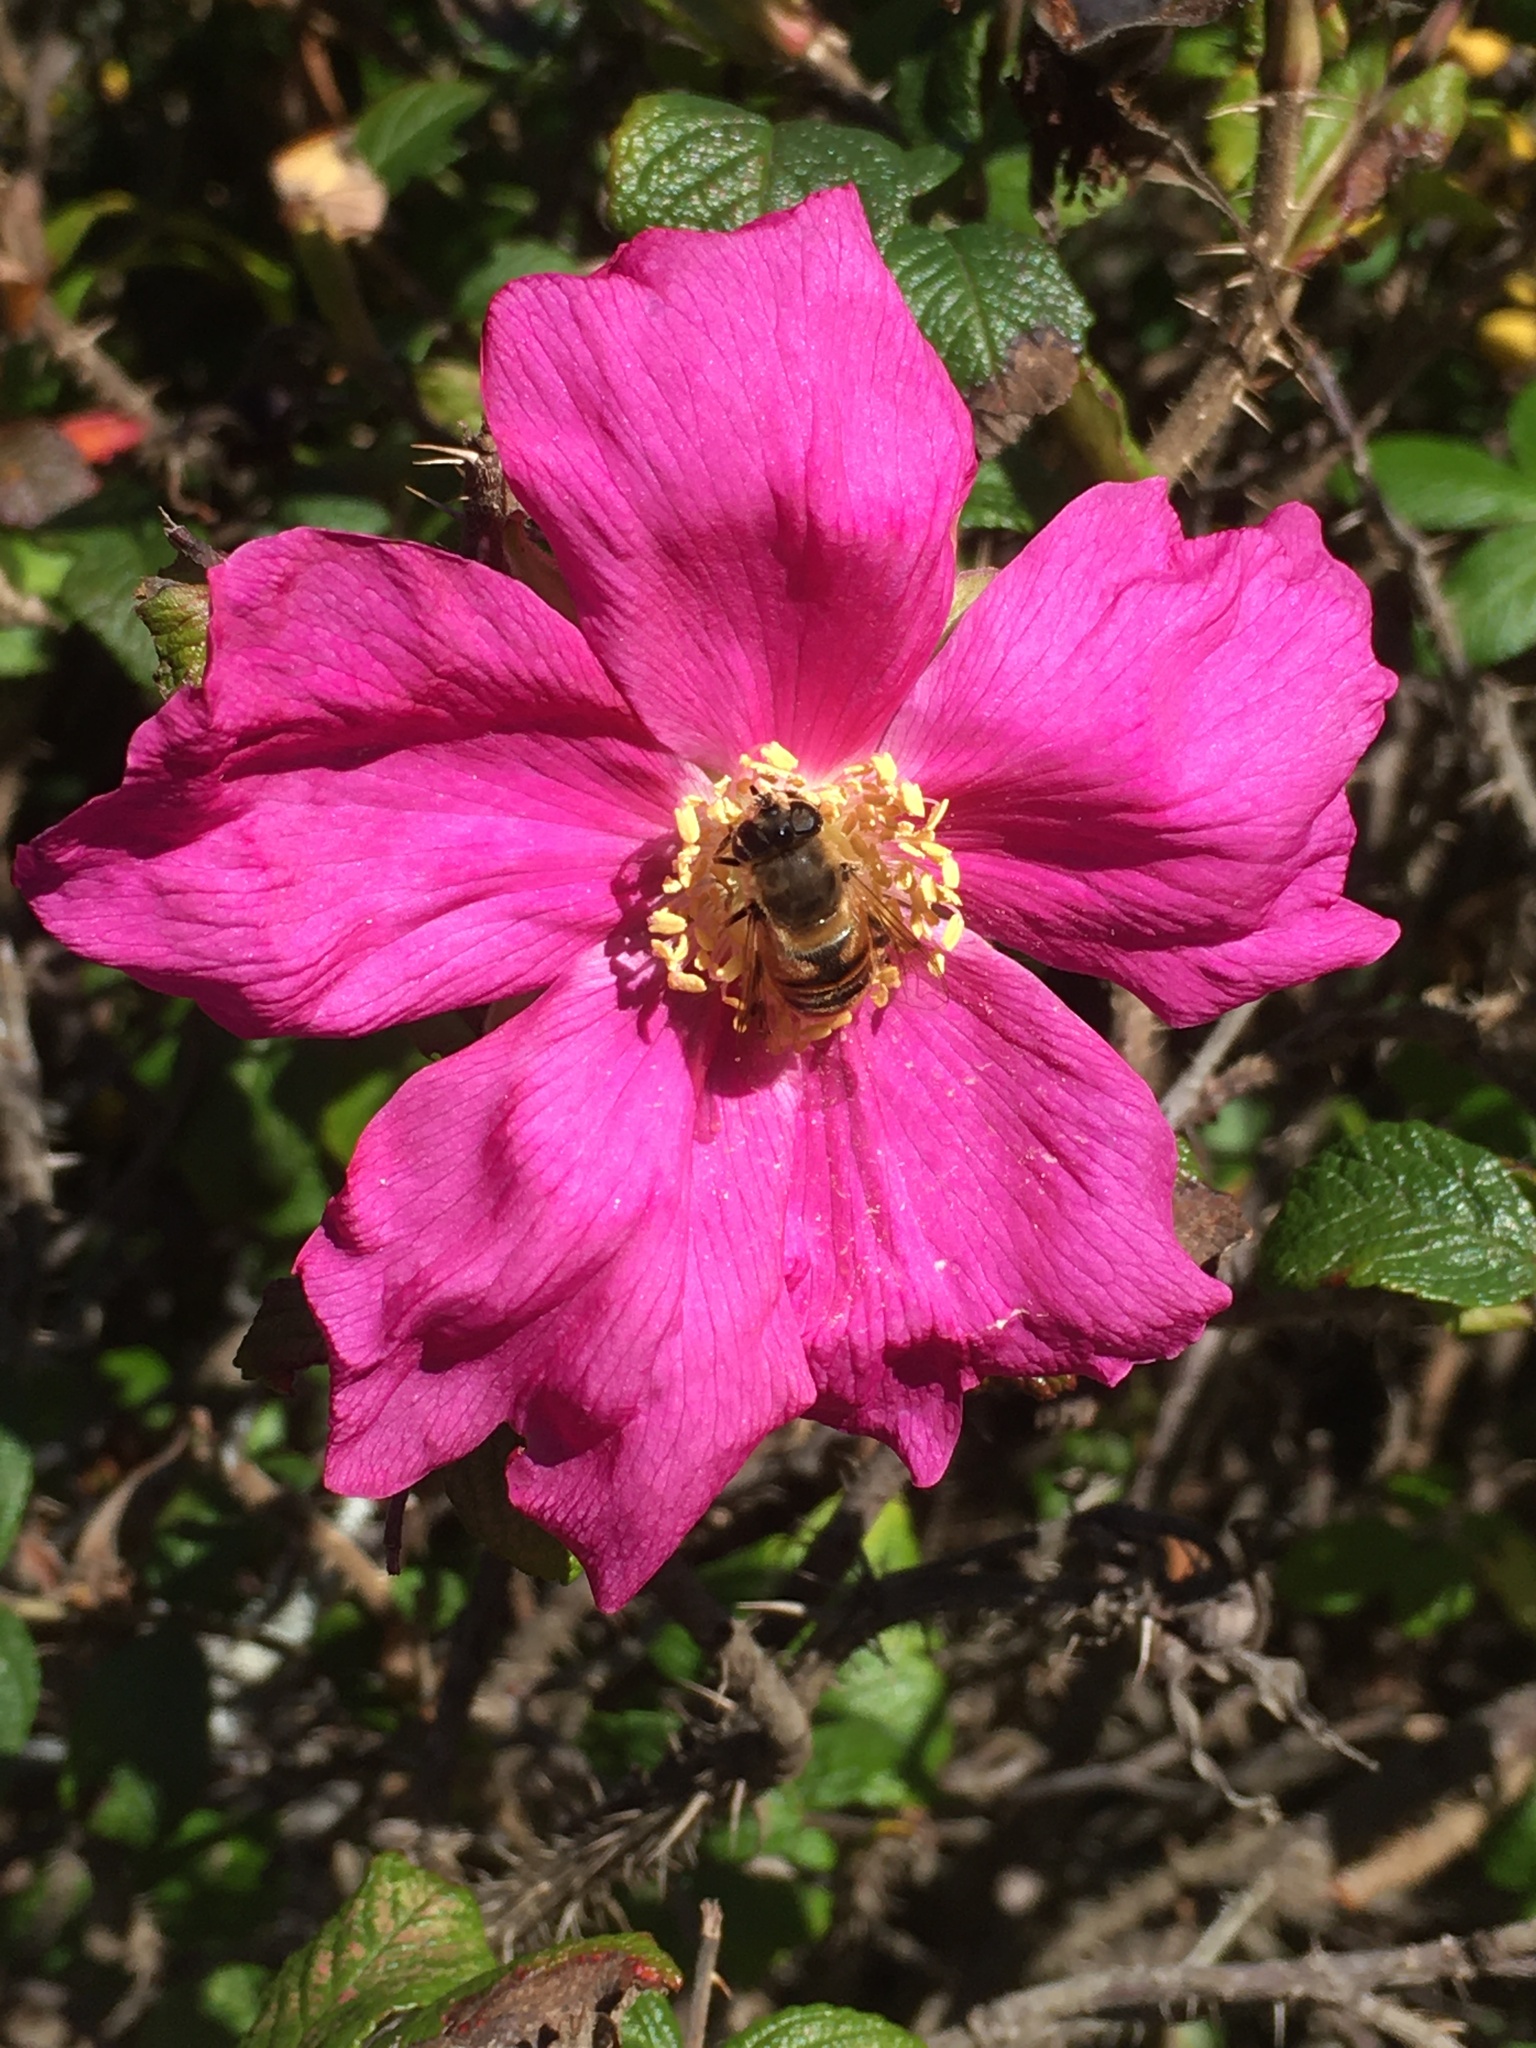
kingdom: Animalia
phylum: Arthropoda
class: Insecta
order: Diptera
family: Syrphidae
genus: Eristalis
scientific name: Eristalis tenax
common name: Drone fly
